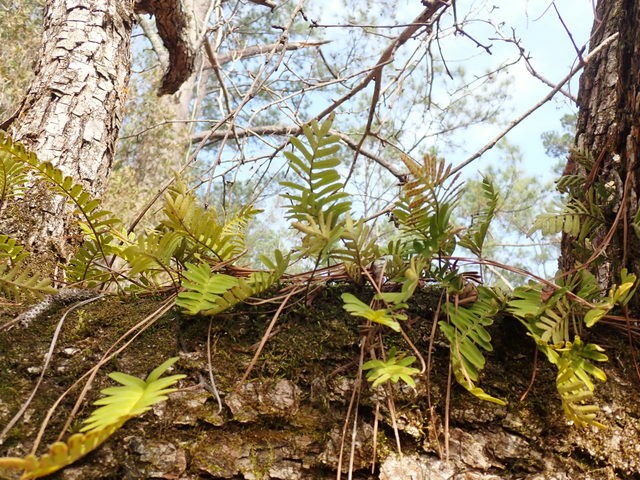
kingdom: Plantae
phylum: Tracheophyta
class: Polypodiopsida
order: Polypodiales
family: Polypodiaceae
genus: Pleopeltis
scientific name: Pleopeltis michauxiana
